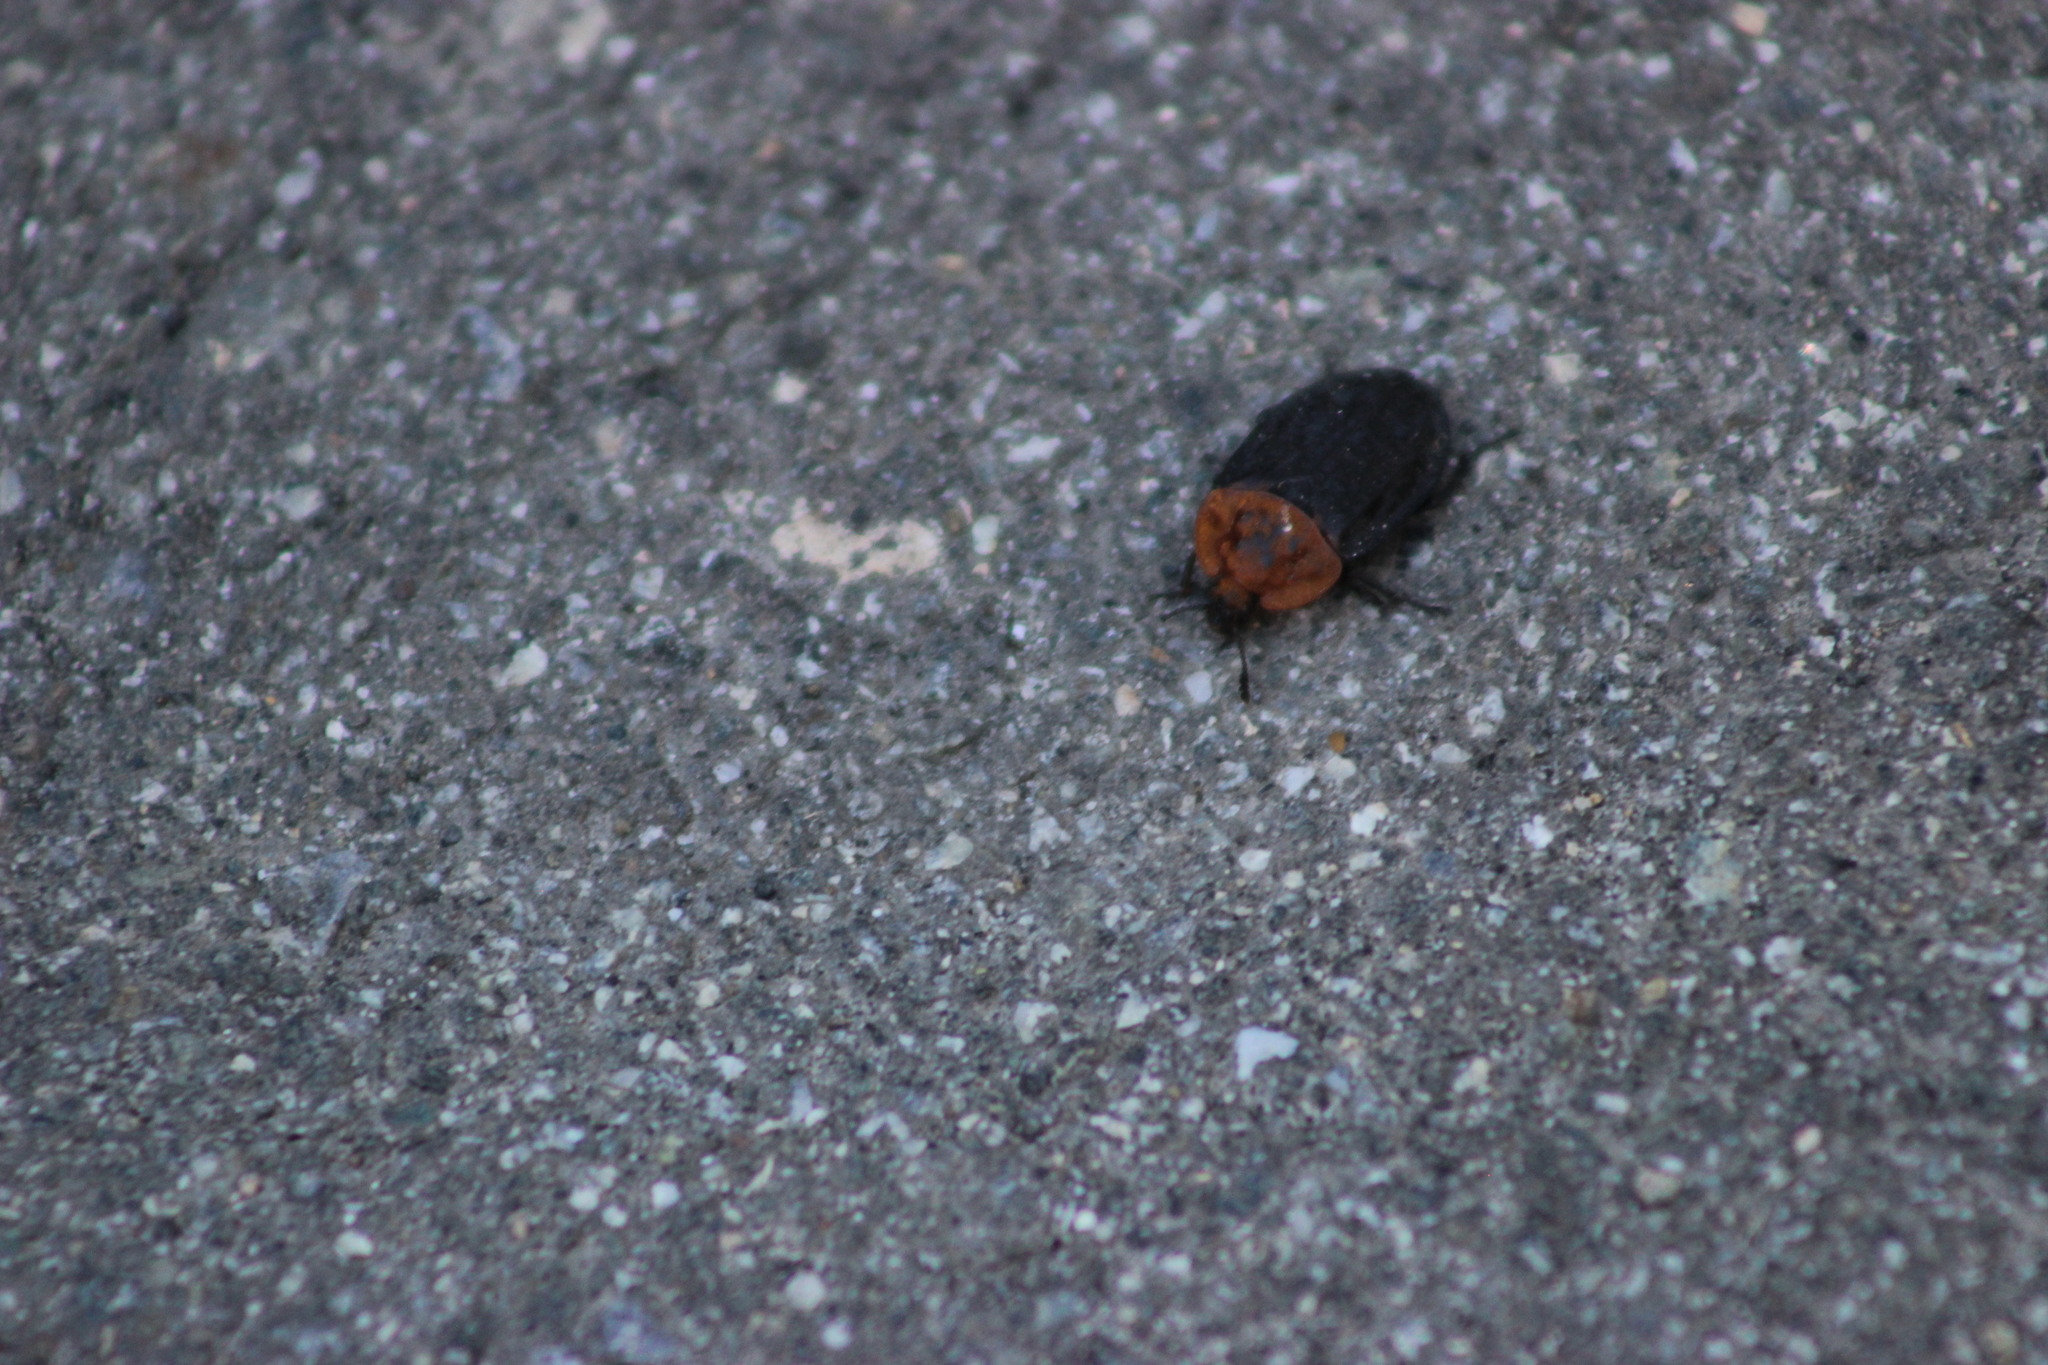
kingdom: Animalia
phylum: Arthropoda
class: Insecta
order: Coleoptera
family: Staphylinidae
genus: Oiceoptoma
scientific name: Oiceoptoma thoracicum
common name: Red-breasted carrion beetle
